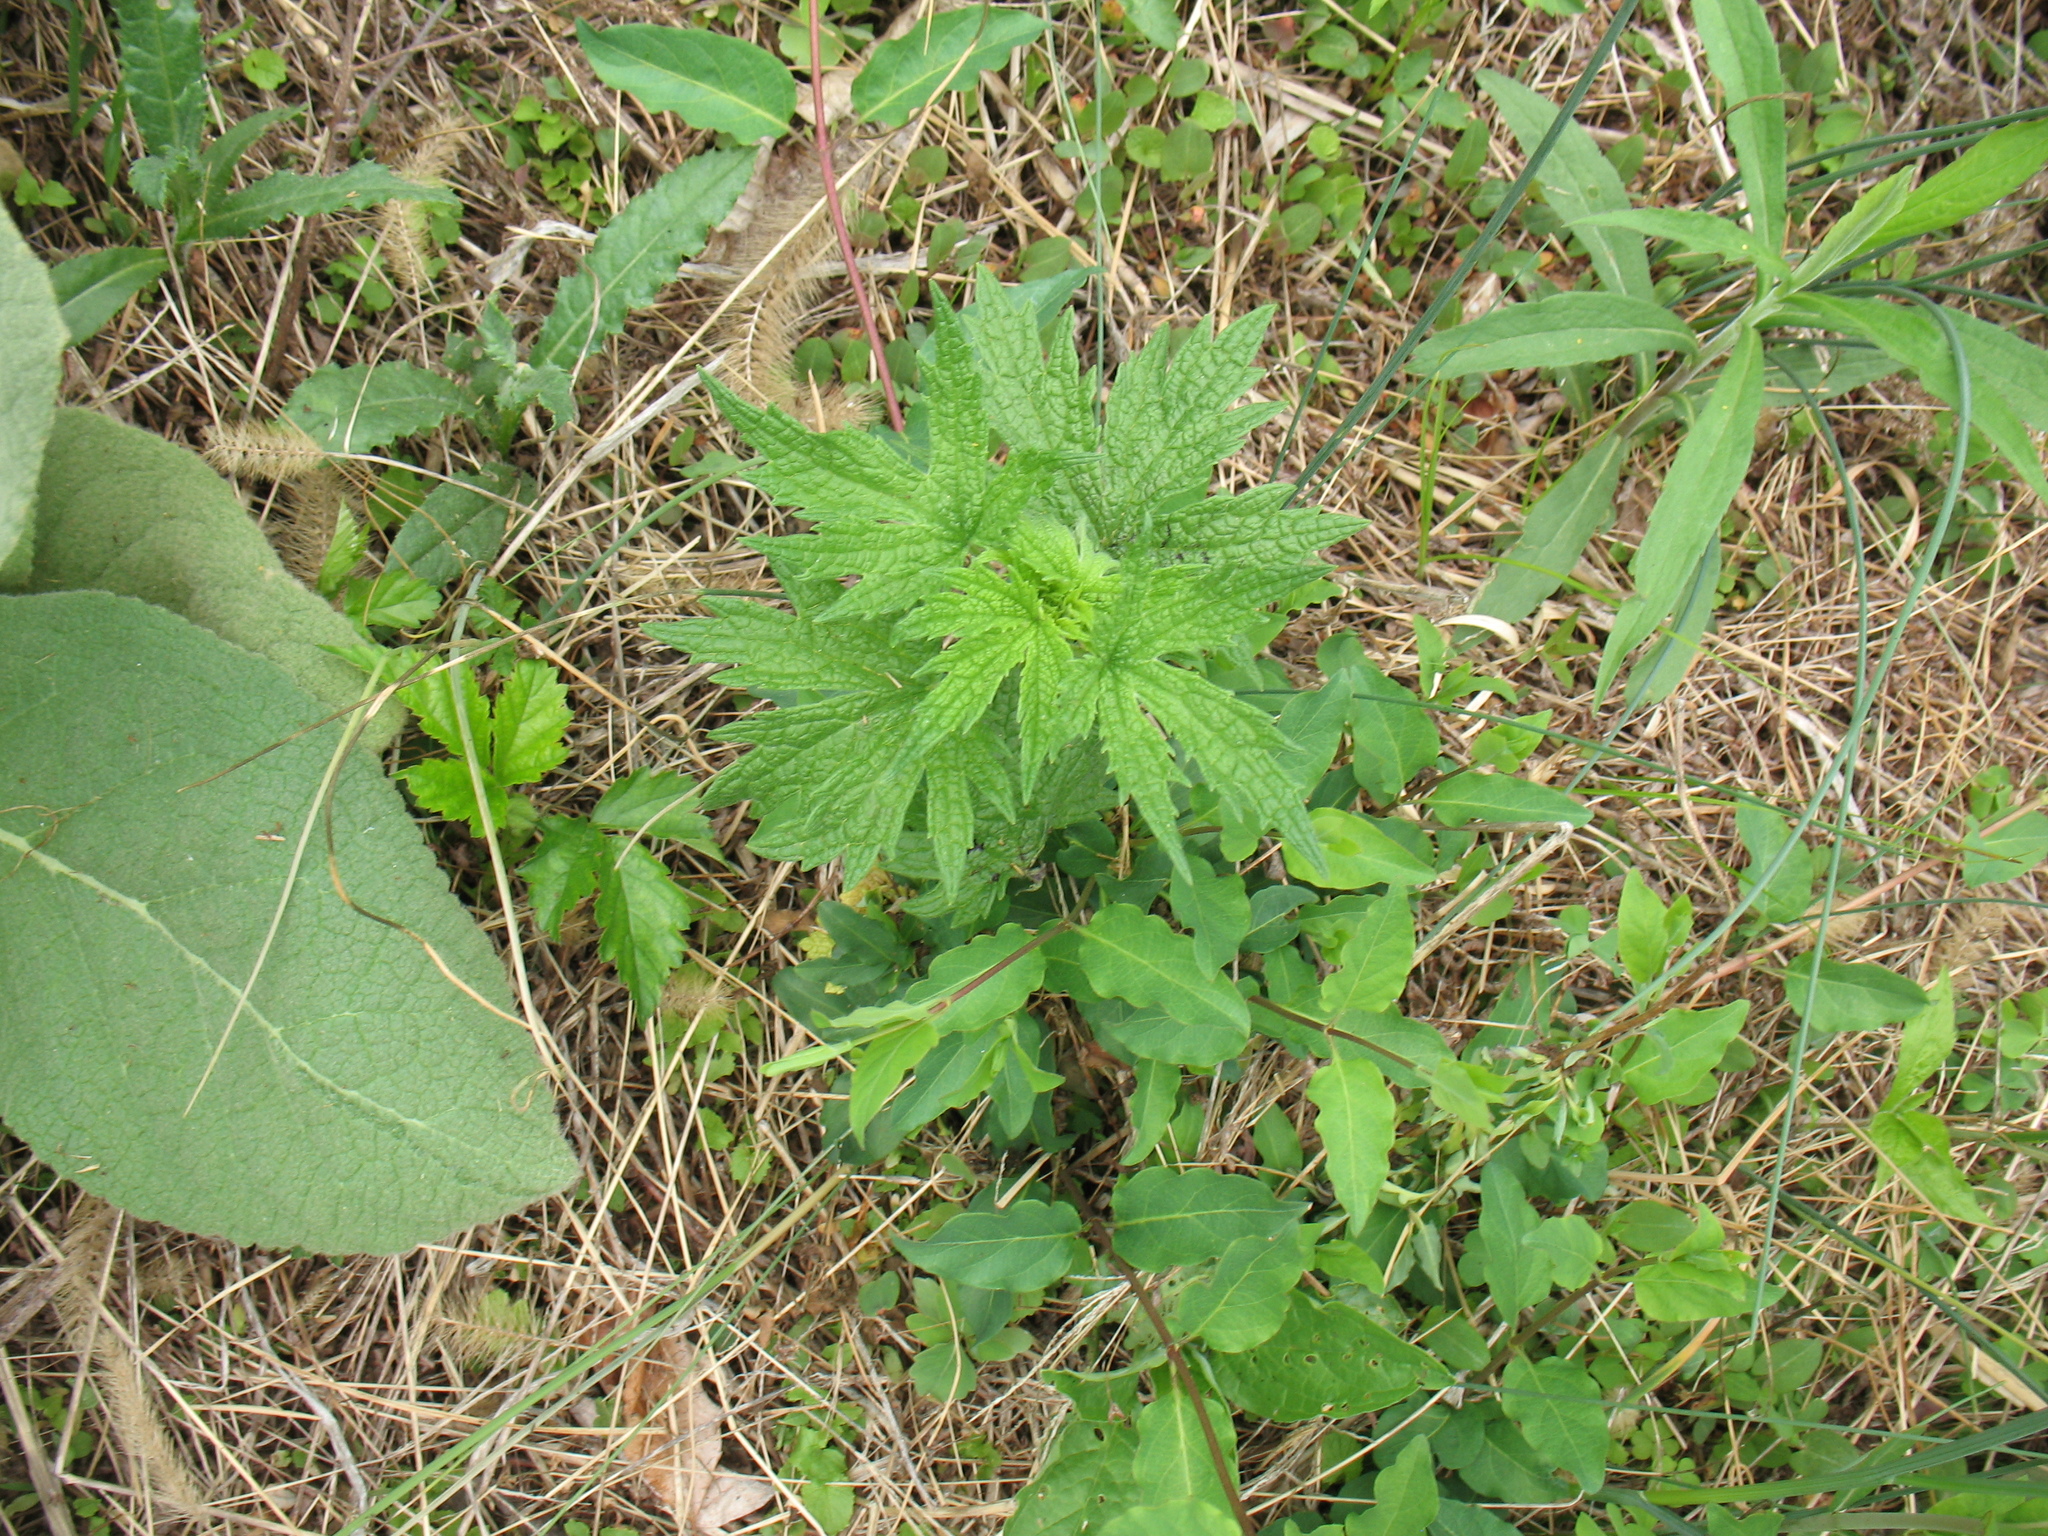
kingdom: Plantae
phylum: Tracheophyta
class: Magnoliopsida
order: Lamiales
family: Lamiaceae
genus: Leonurus
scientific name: Leonurus cardiaca
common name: Motherwort
